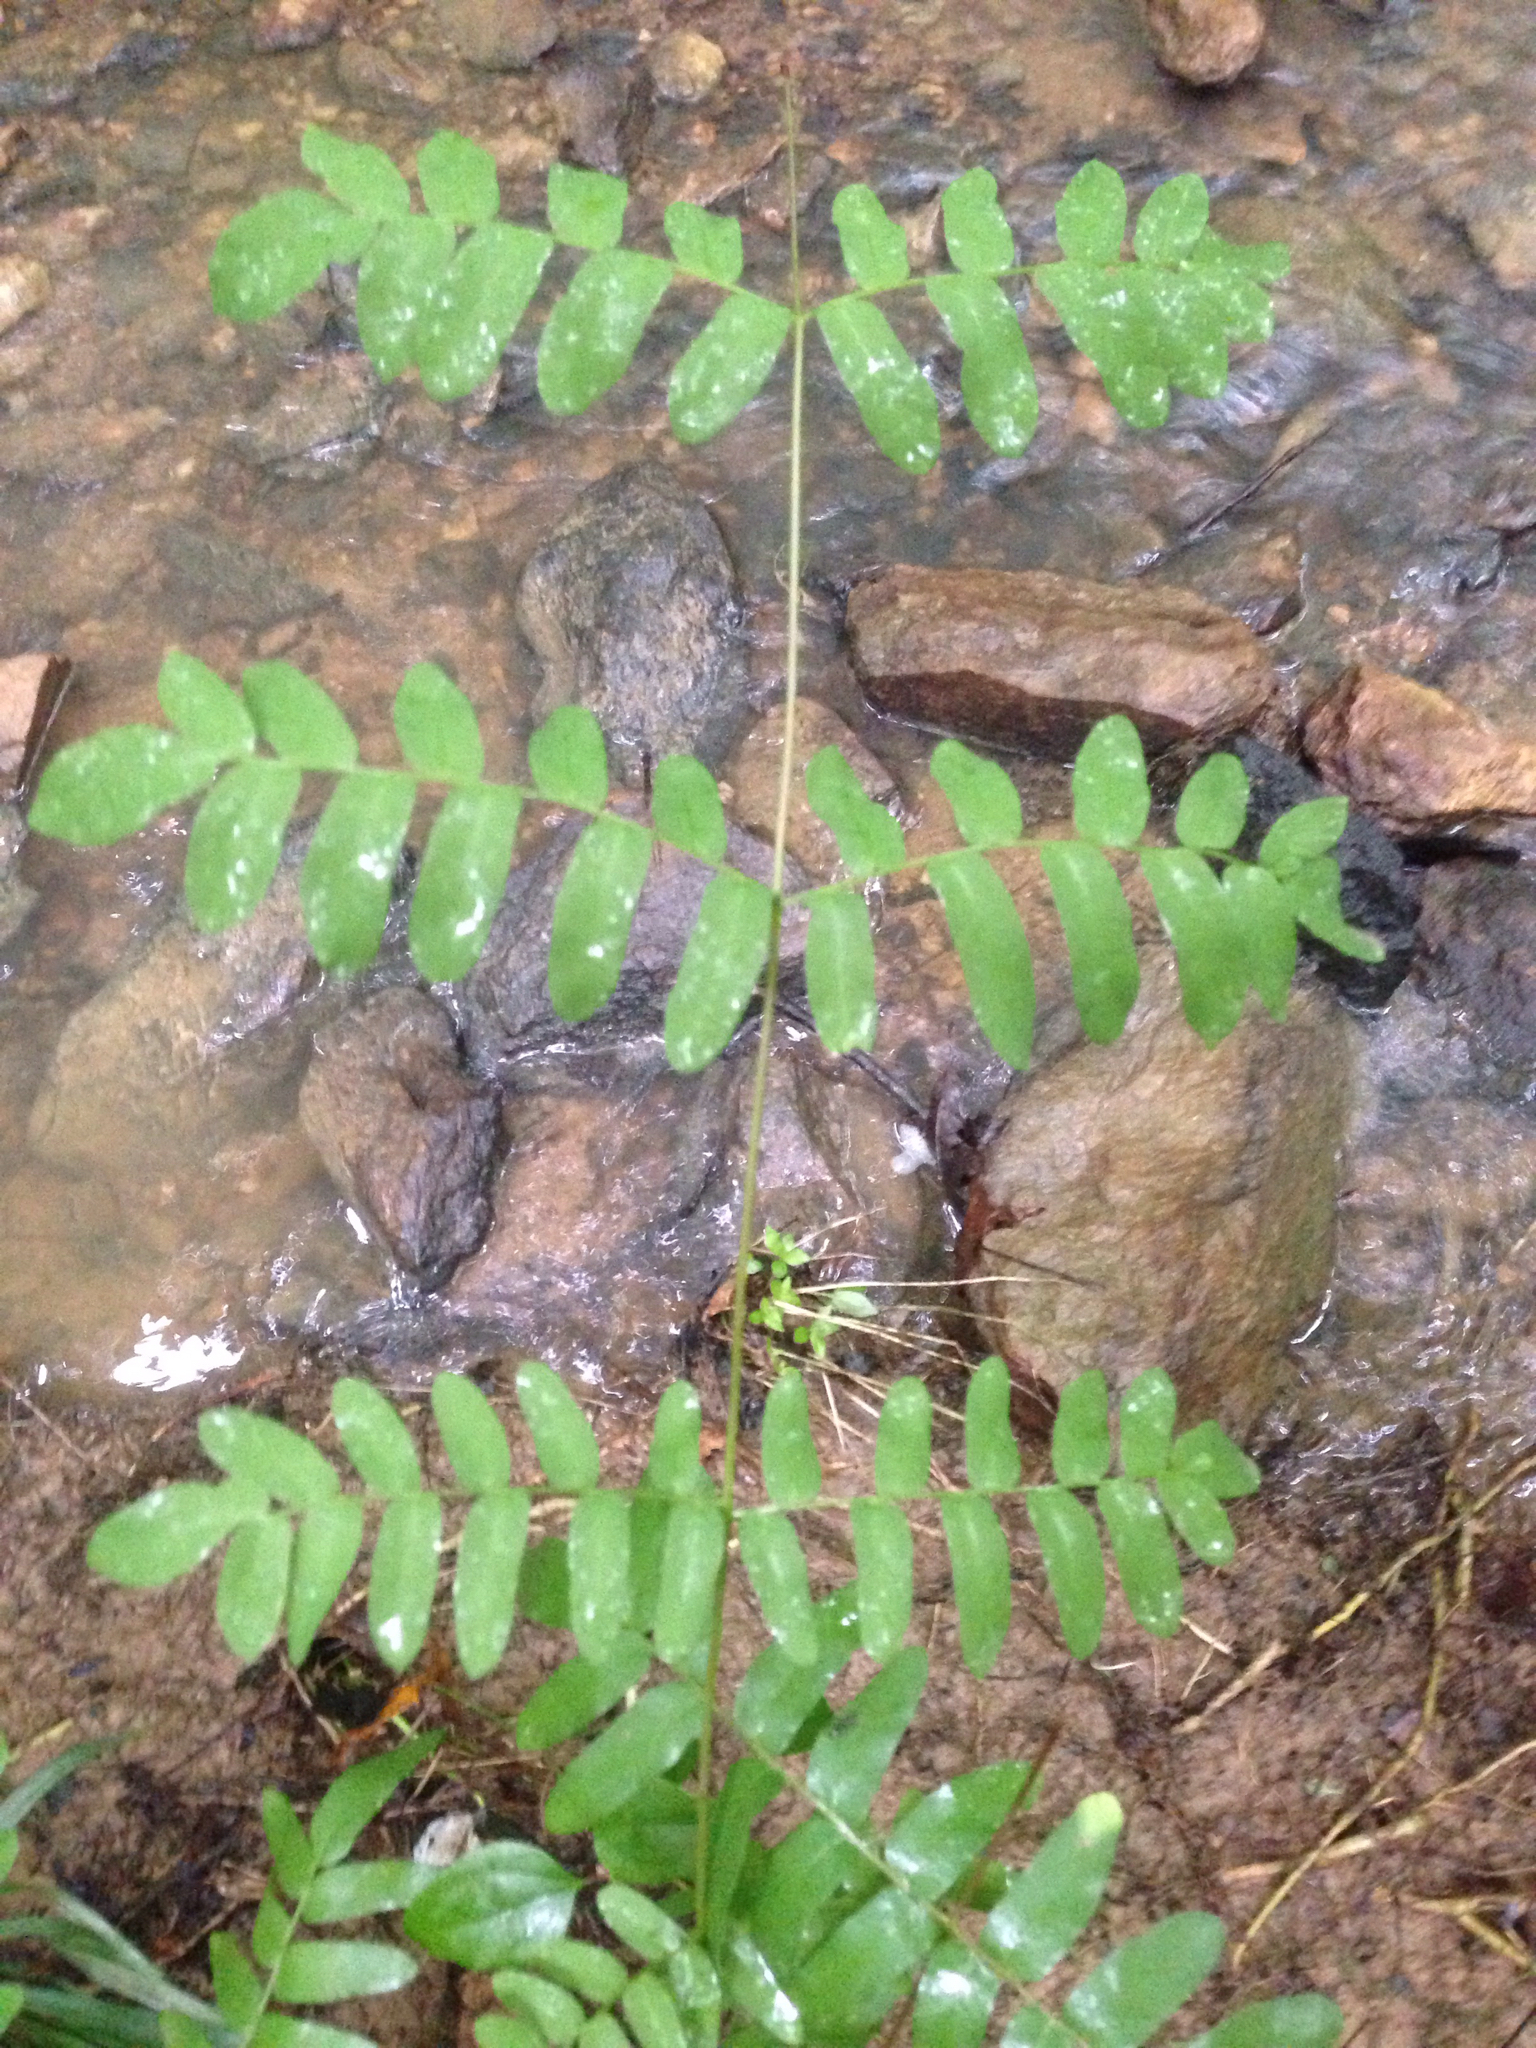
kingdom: Plantae
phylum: Tracheophyta
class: Polypodiopsida
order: Osmundales
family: Osmundaceae
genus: Osmunda
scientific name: Osmunda spectabilis
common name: American royal fern
